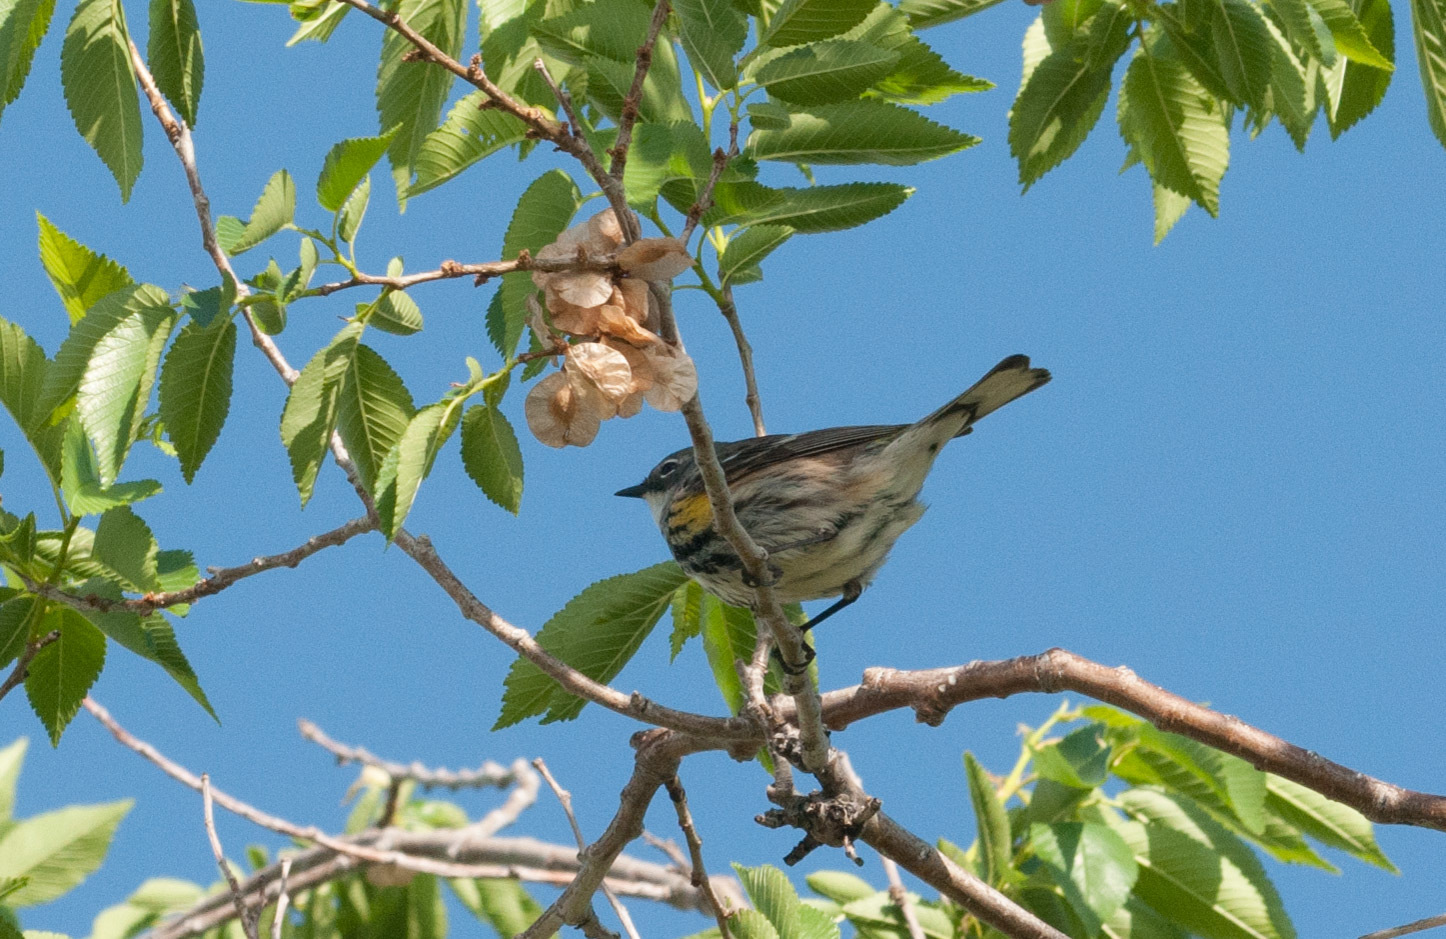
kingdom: Animalia
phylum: Chordata
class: Aves
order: Passeriformes
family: Parulidae
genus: Setophaga
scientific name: Setophaga coronata
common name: Myrtle warbler
